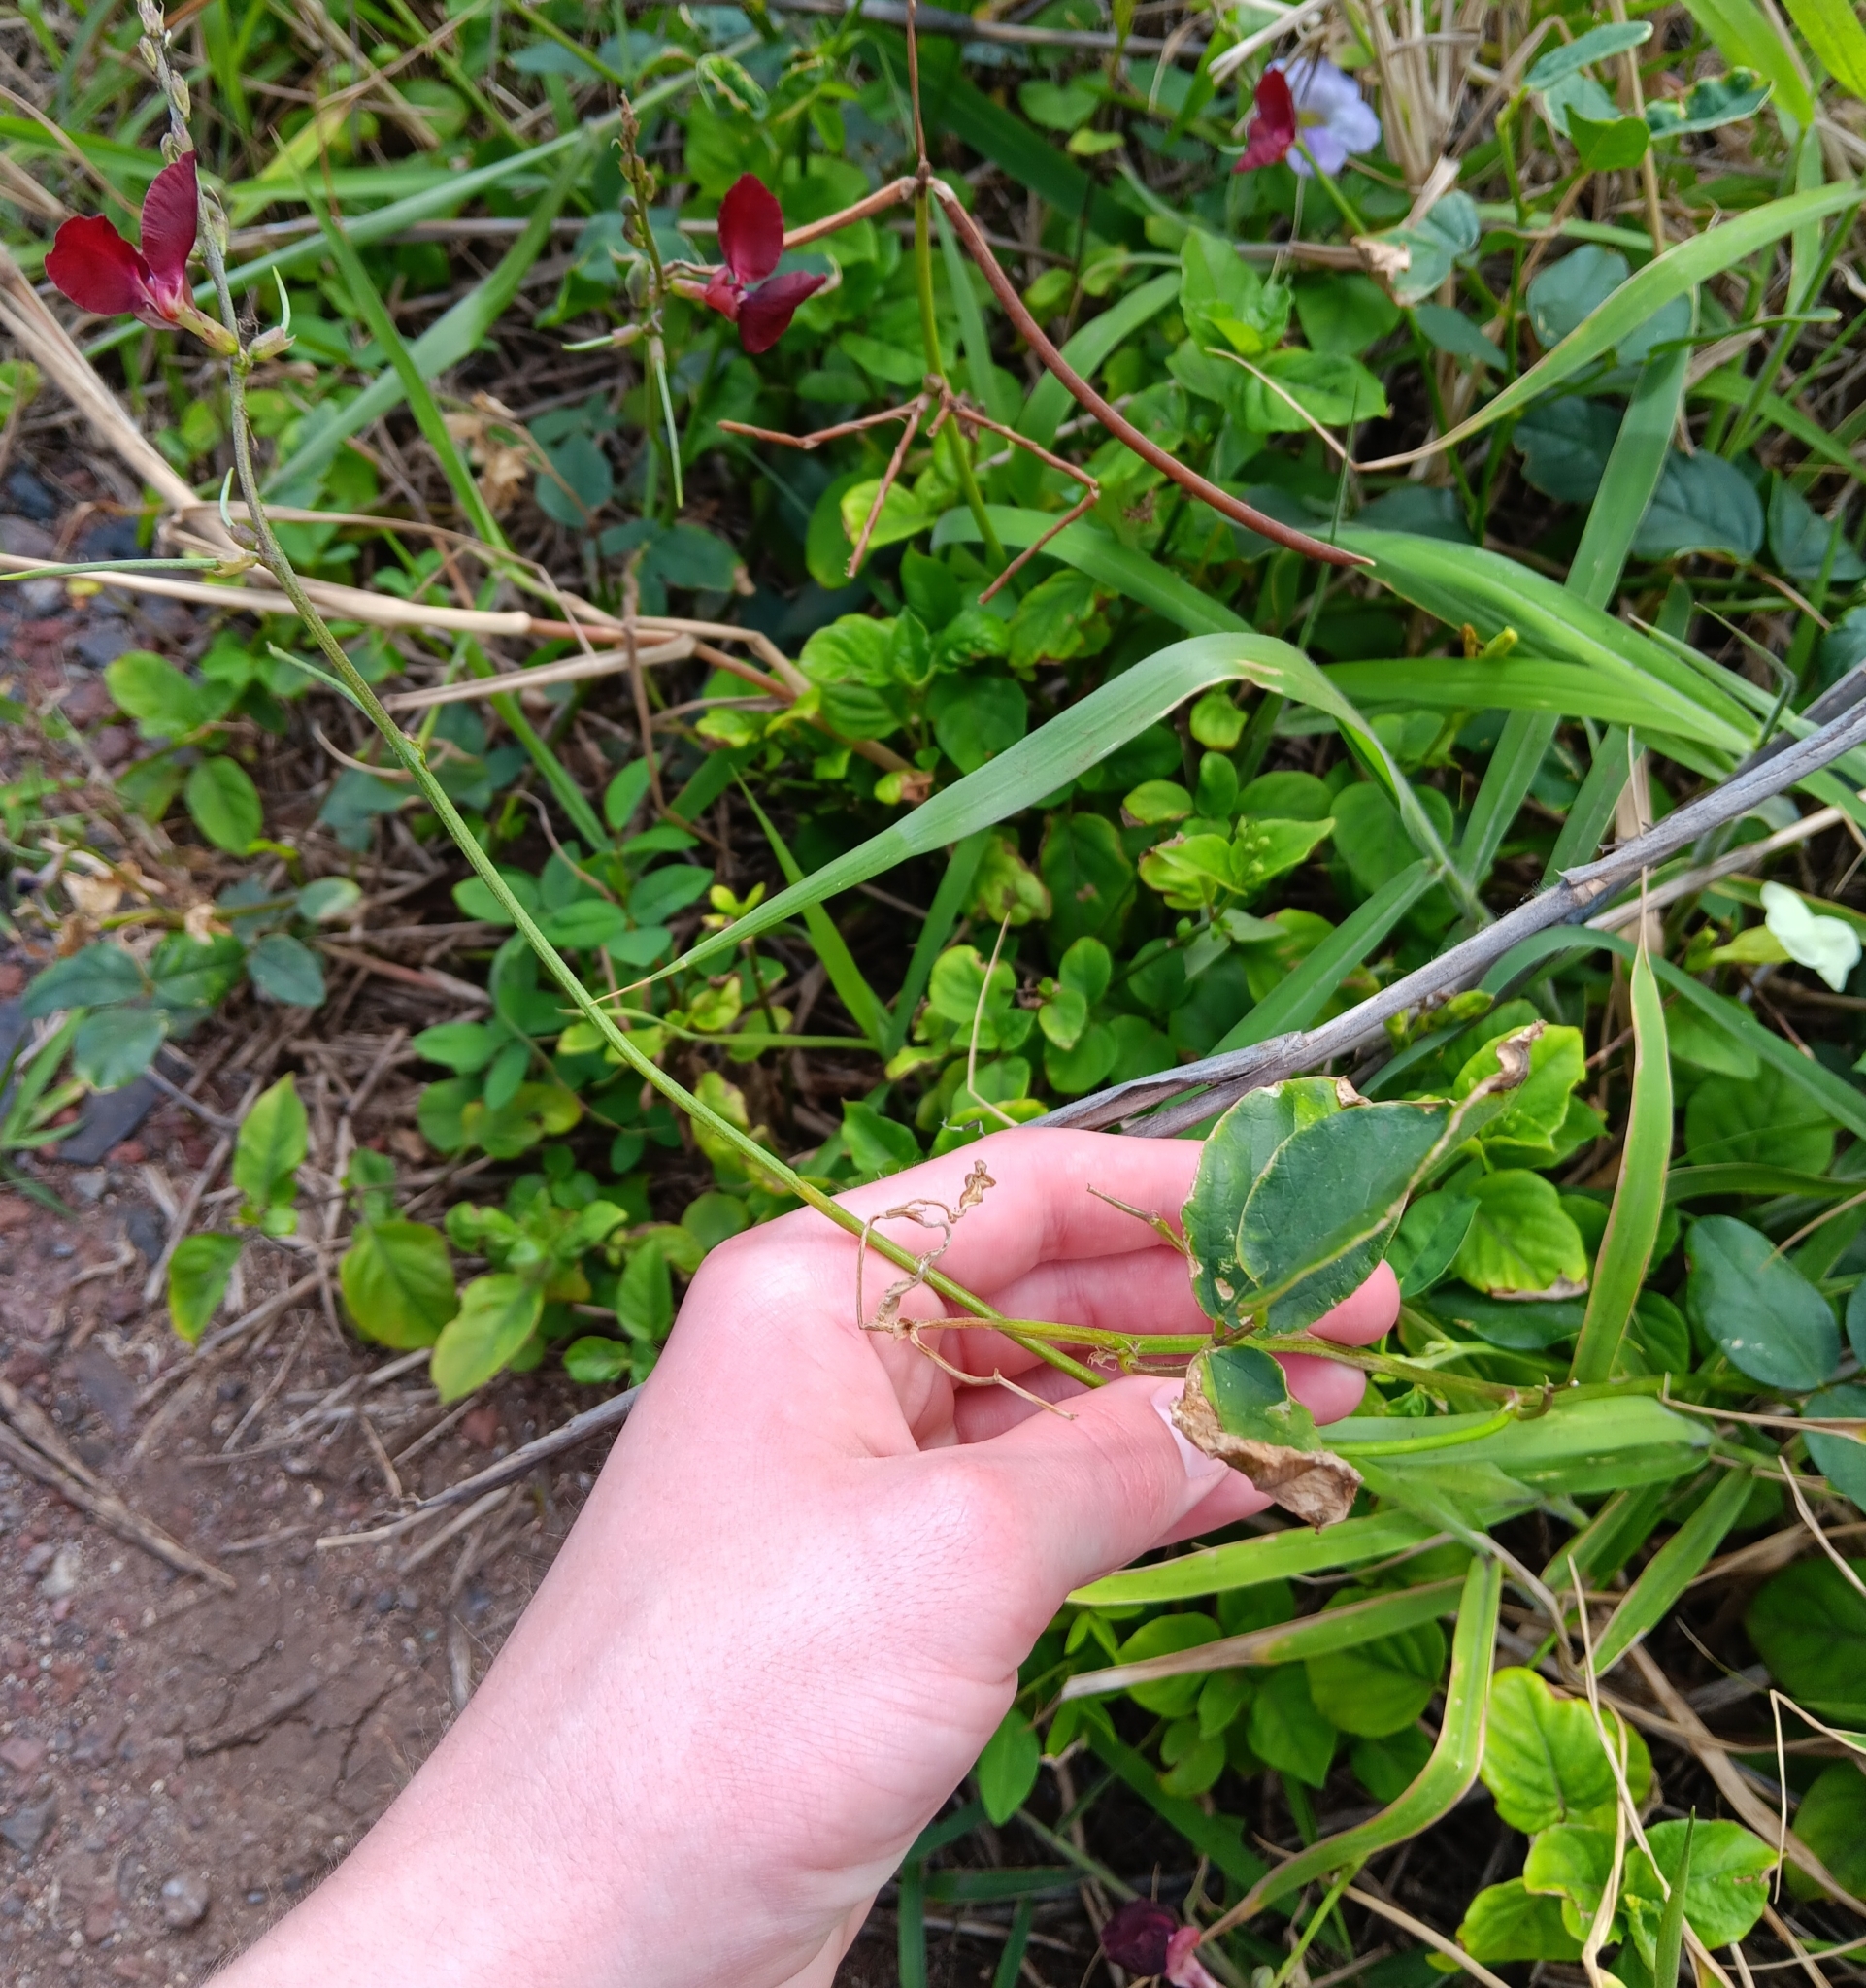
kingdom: Plantae
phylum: Tracheophyta
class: Magnoliopsida
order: Fabales
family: Fabaceae
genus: Macroptilium
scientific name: Macroptilium lathyroides
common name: Wild bushbean
